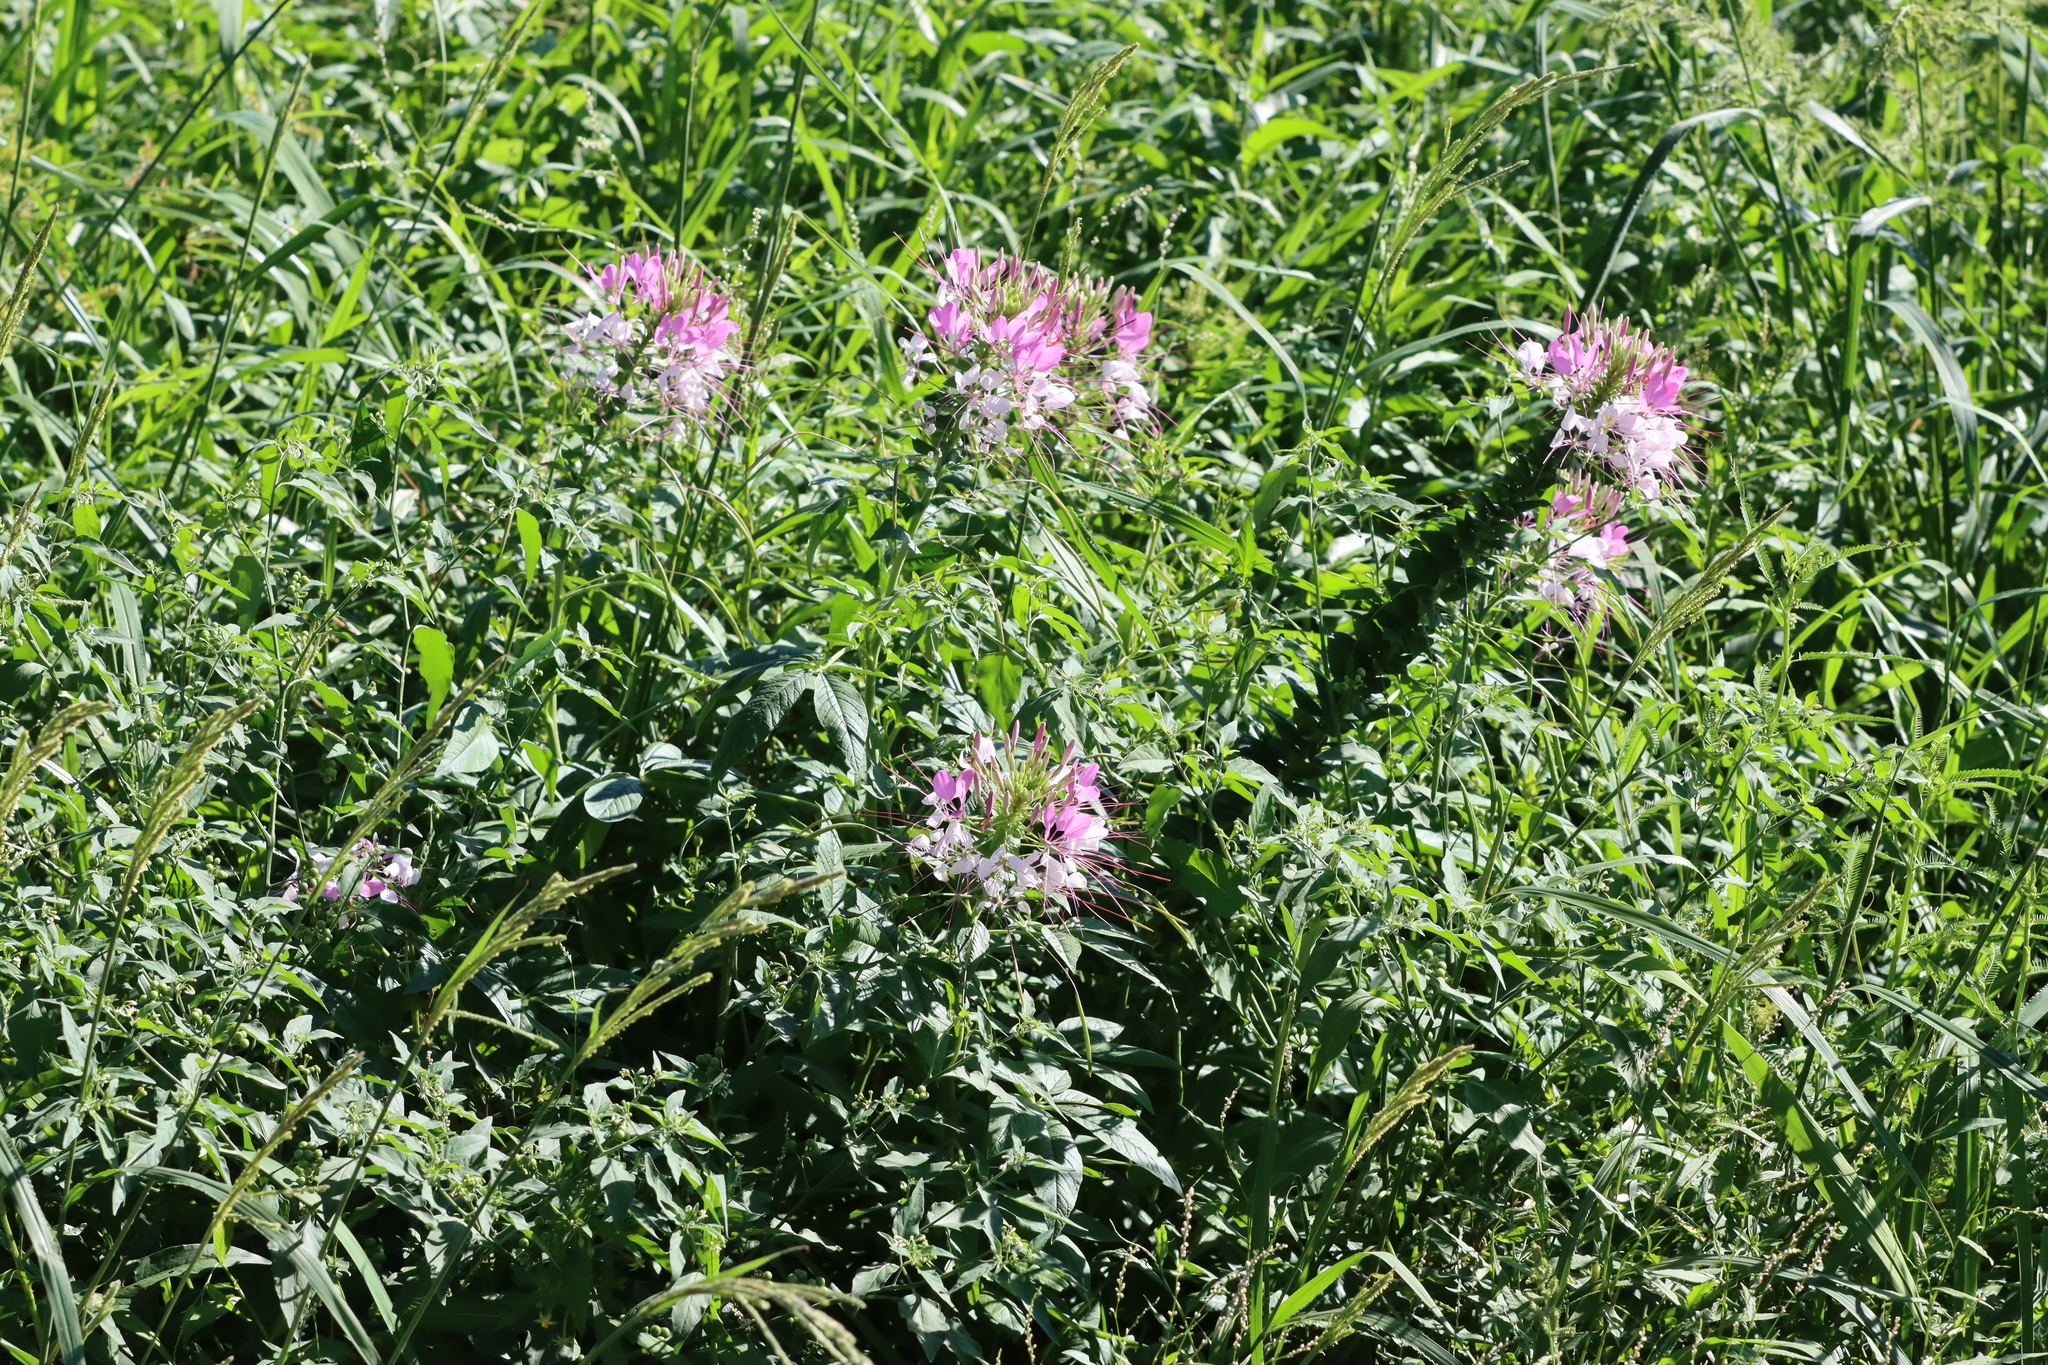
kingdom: Plantae
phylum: Tracheophyta
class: Magnoliopsida
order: Brassicales
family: Cleomaceae
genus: Tarenaya
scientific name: Tarenaya houtteana
